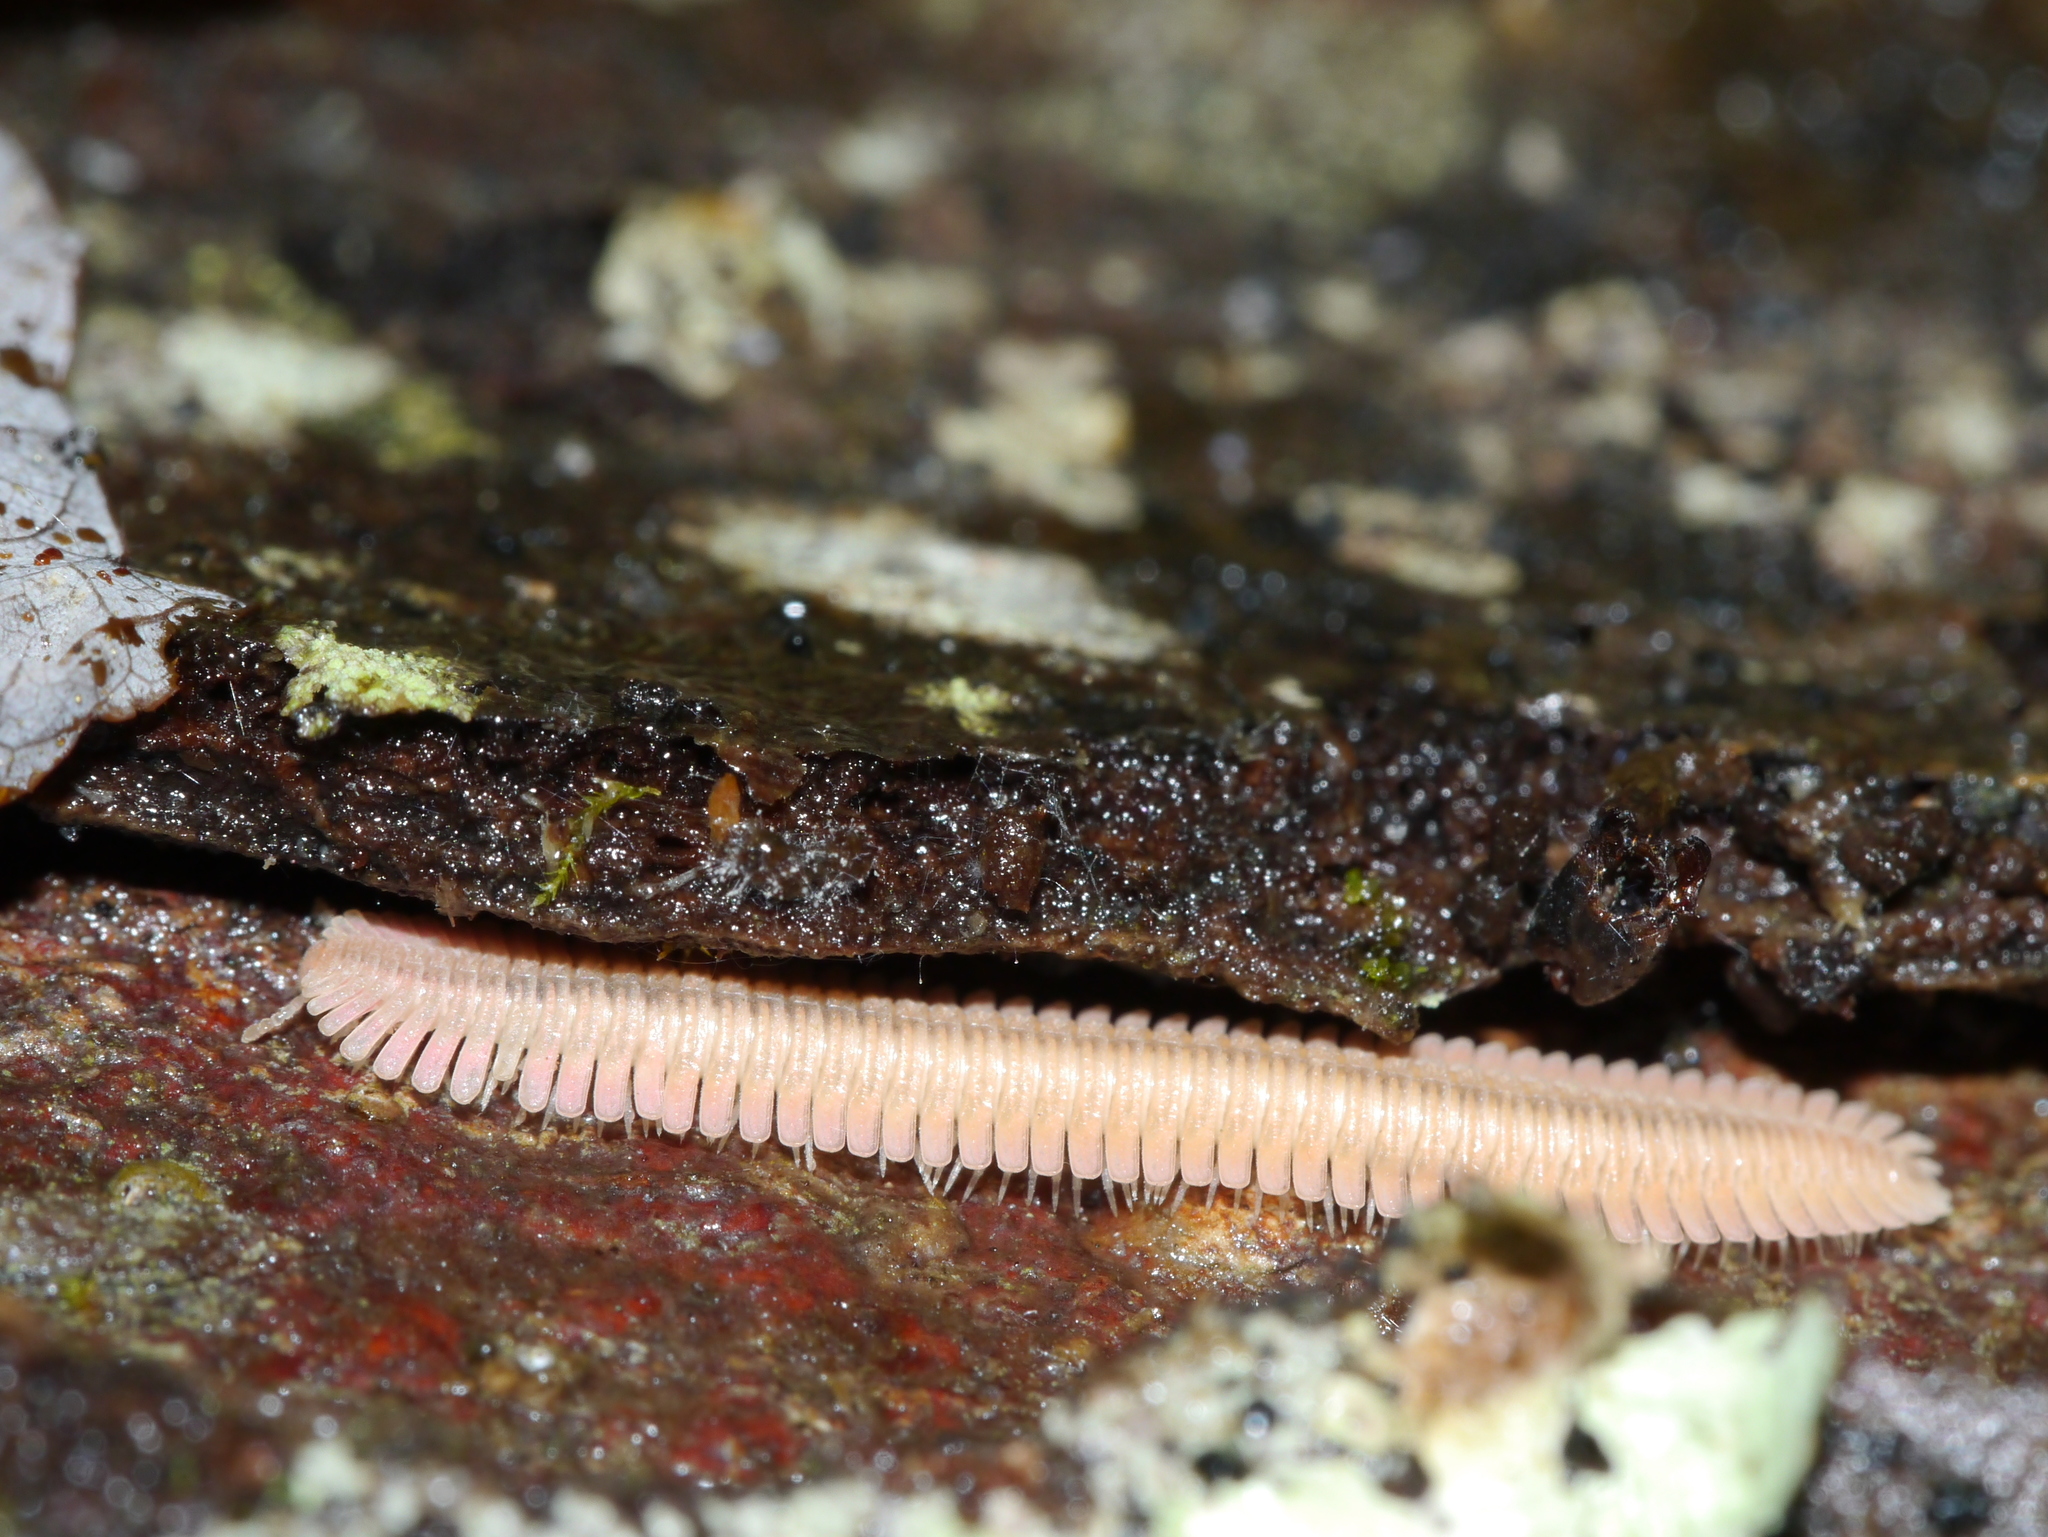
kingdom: Animalia
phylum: Arthropoda
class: Diplopoda
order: Platydesmida
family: Andrognathidae
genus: Brachycybe
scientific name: Brachycybe lecontii
